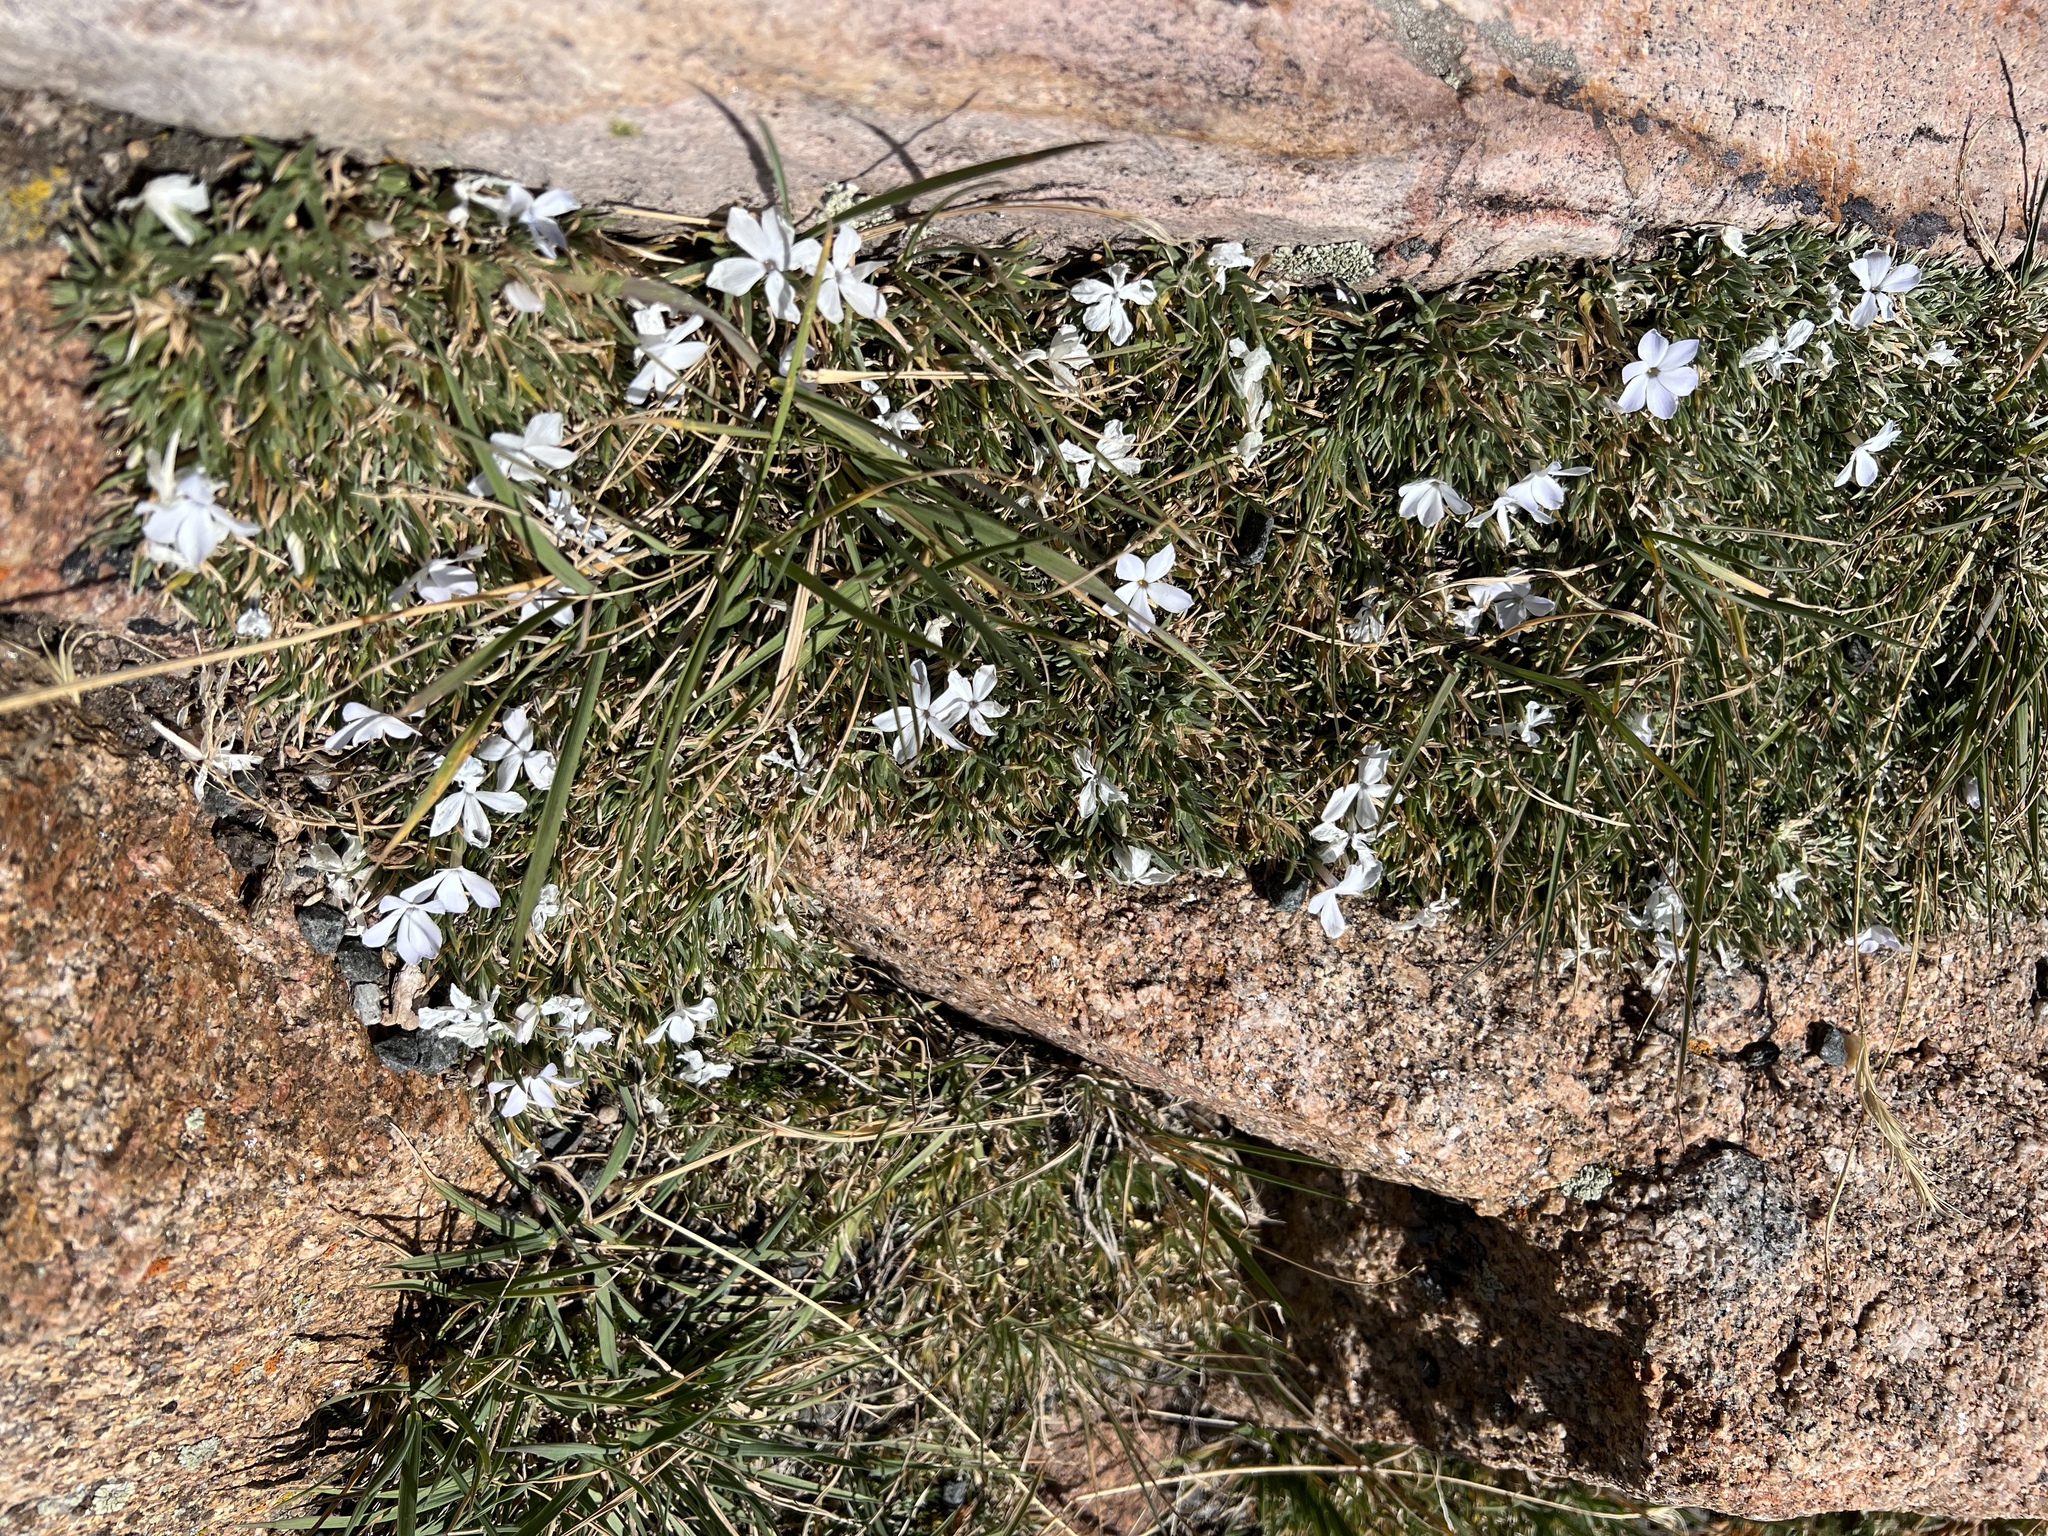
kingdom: Plantae
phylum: Tracheophyta
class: Magnoliopsida
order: Ericales
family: Polemoniaceae
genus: Phlox
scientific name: Phlox condensata
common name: Compact phlox
